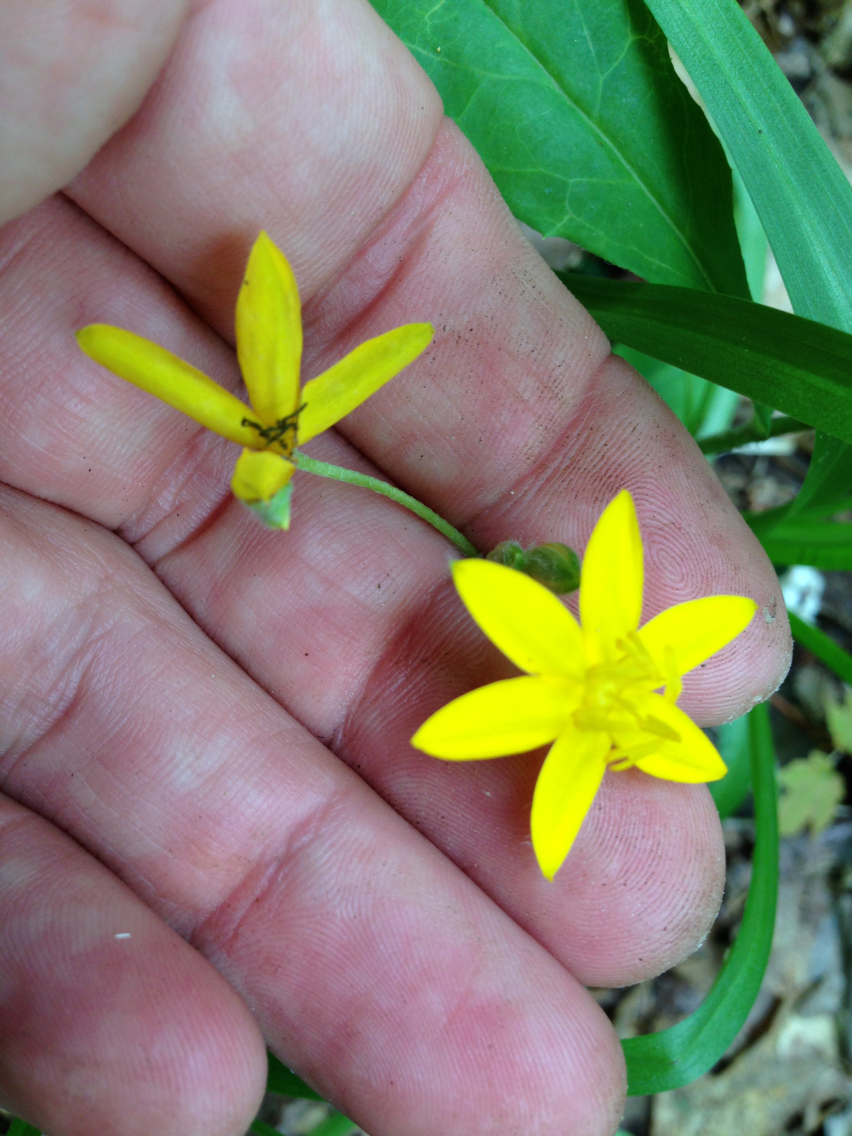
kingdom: Plantae
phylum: Tracheophyta
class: Liliopsida
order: Asparagales
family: Hypoxidaceae
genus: Hypoxis
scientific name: Hypoxis hirsuta
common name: Common goldstar
